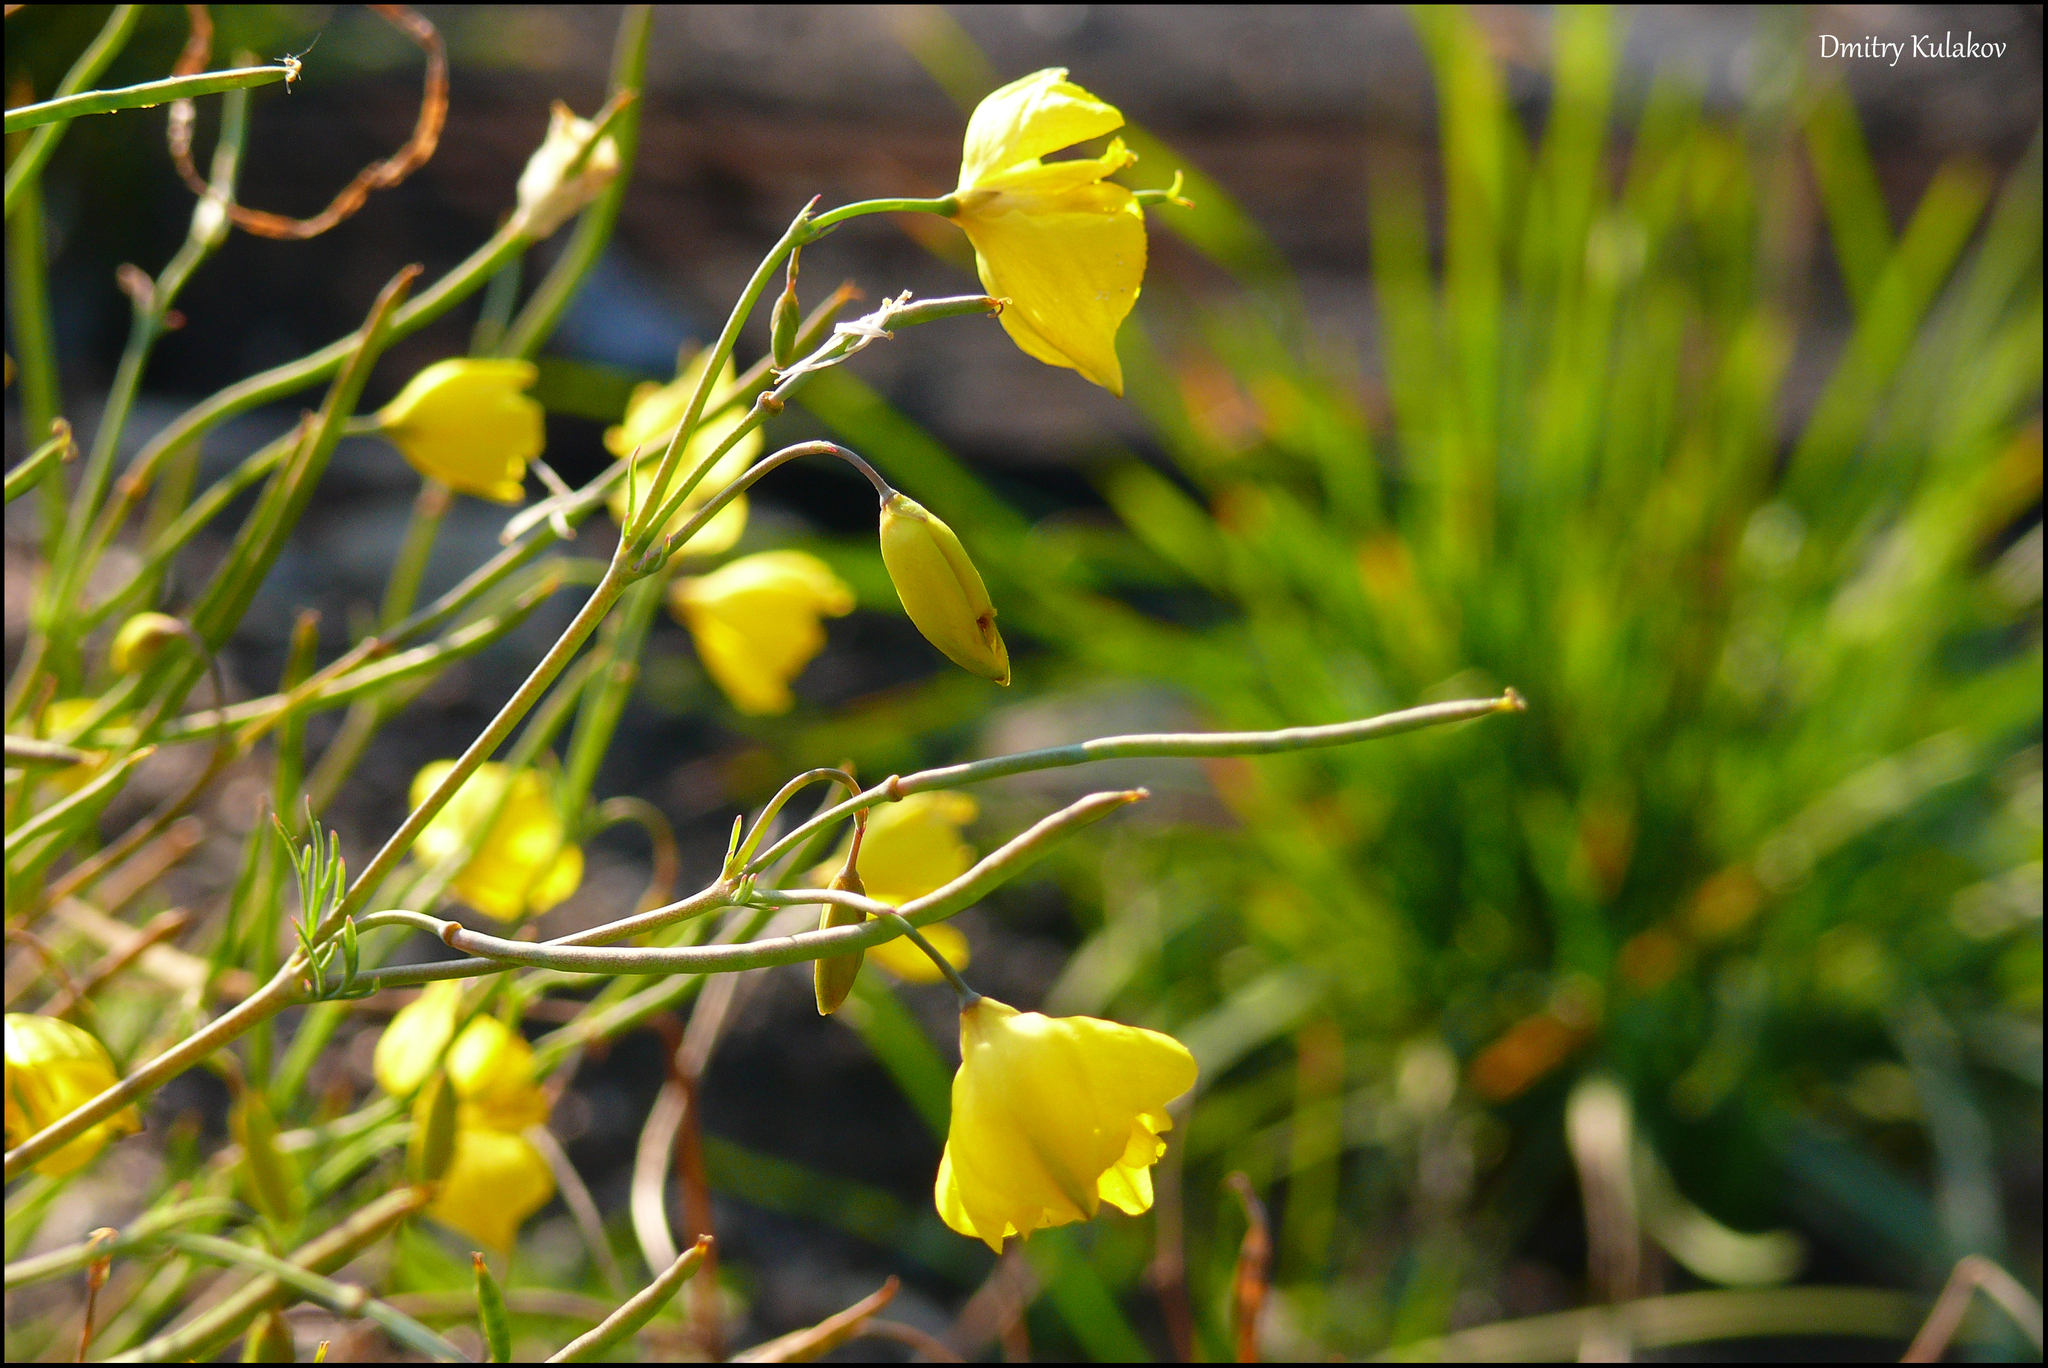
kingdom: Plantae
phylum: Tracheophyta
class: Magnoliopsida
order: Ranunculales
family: Papaveraceae
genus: Hypecoum
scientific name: Hypecoum erectum
